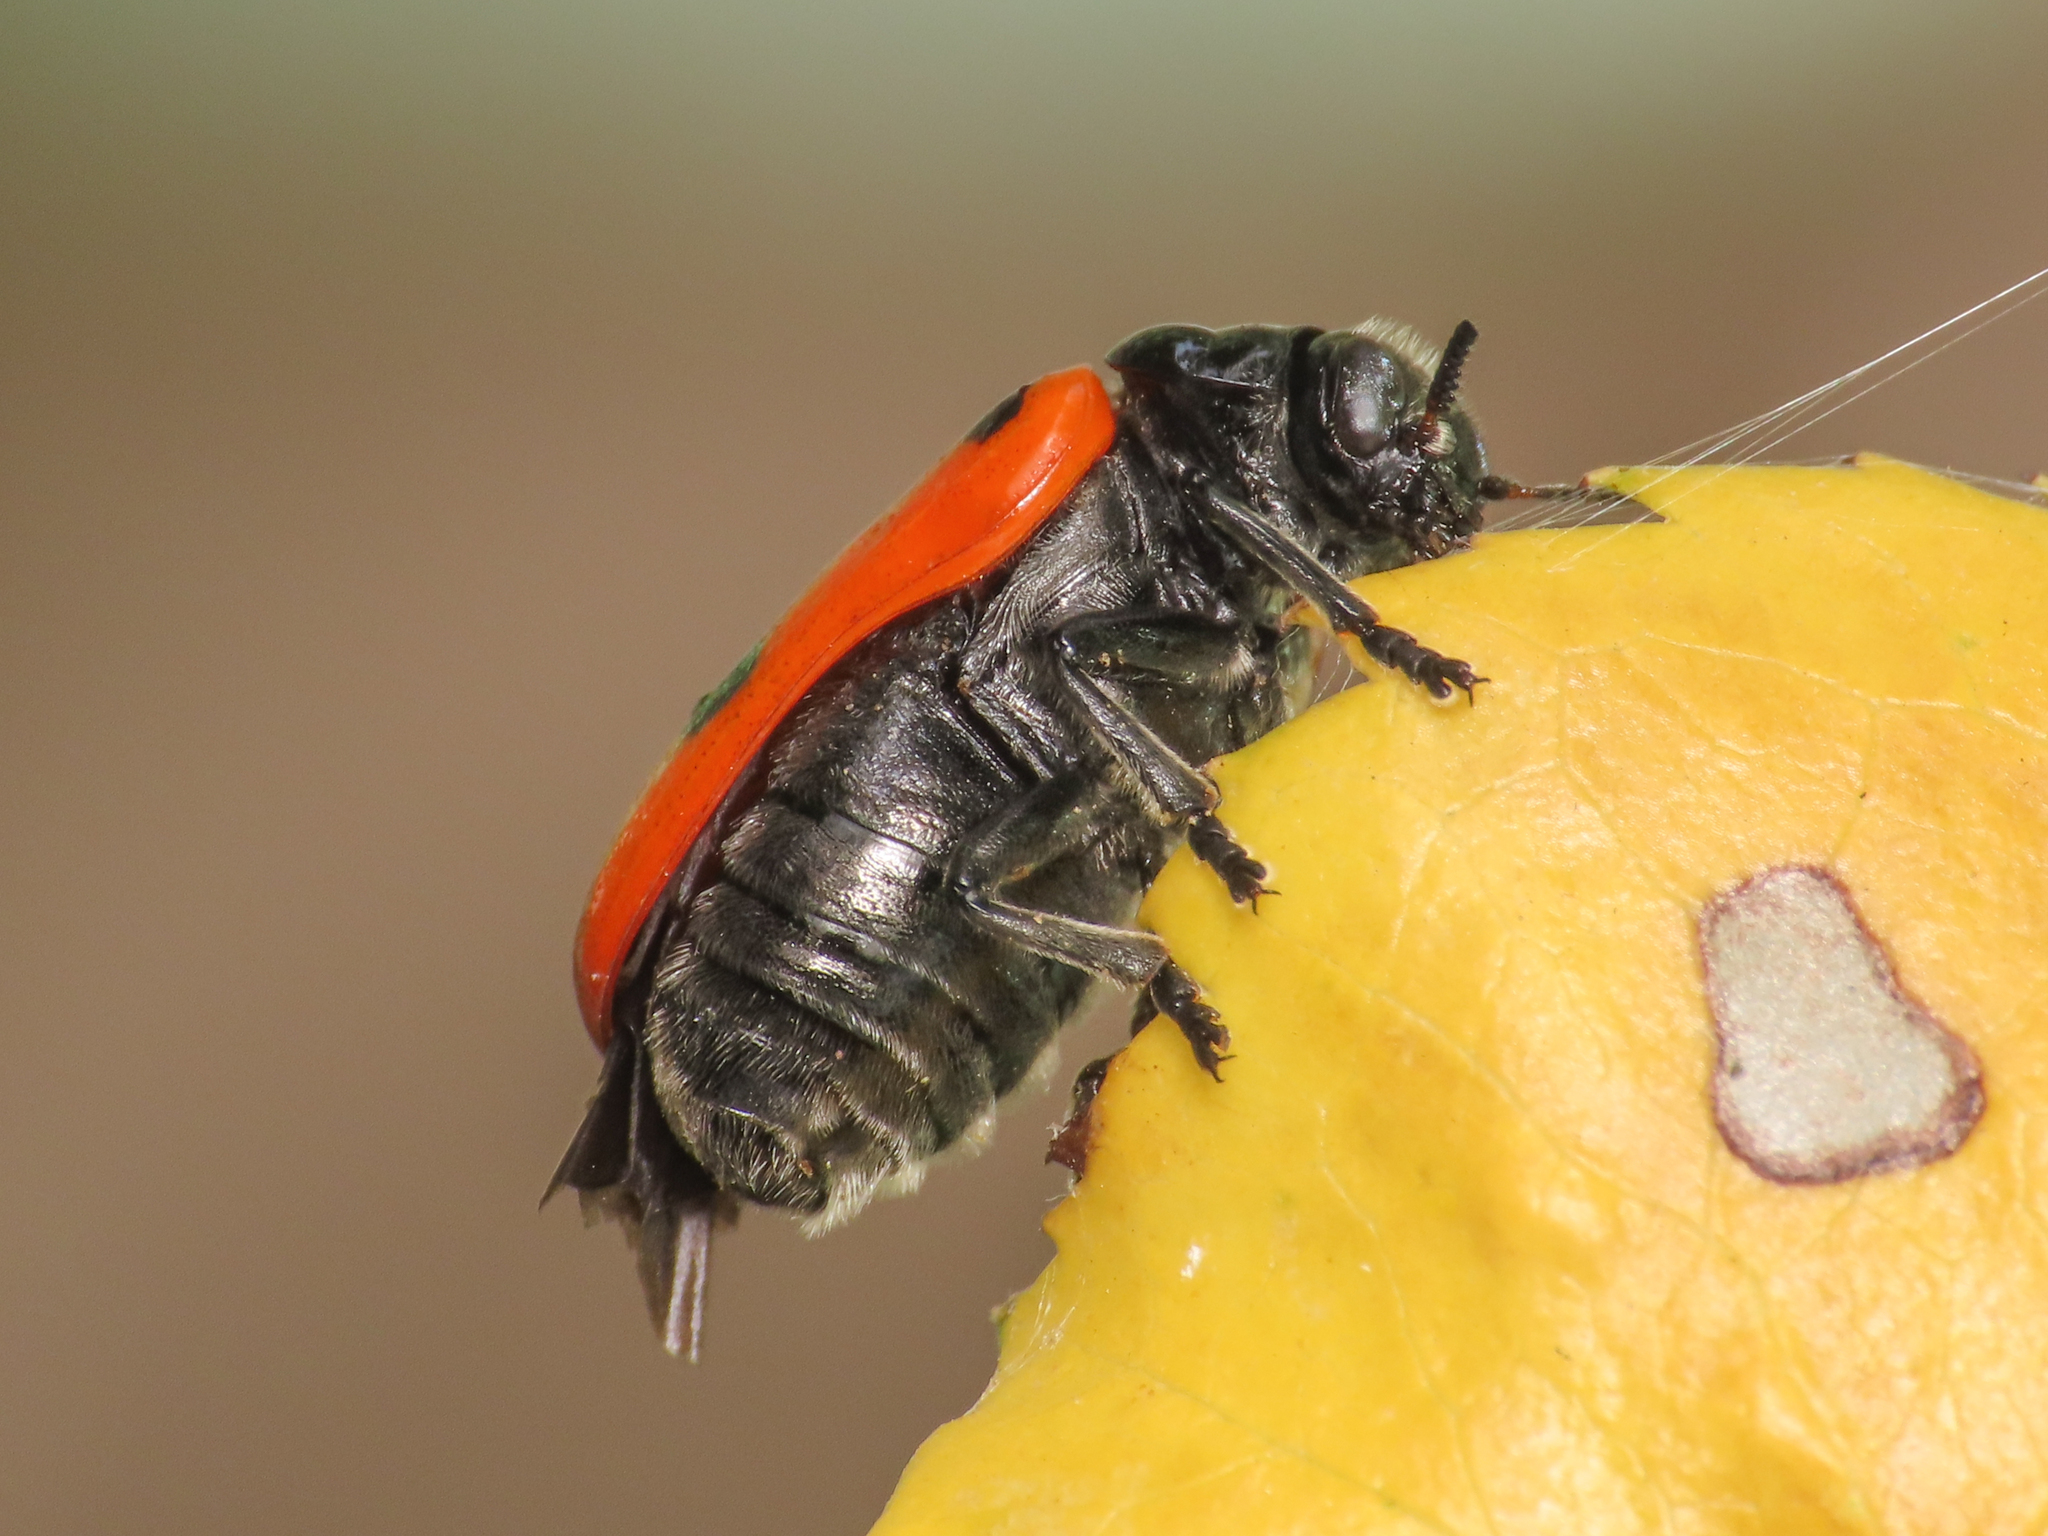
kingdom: Animalia
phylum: Arthropoda
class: Insecta
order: Coleoptera
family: Chrysomelidae
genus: Clytra
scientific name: Clytra laeviuscula
